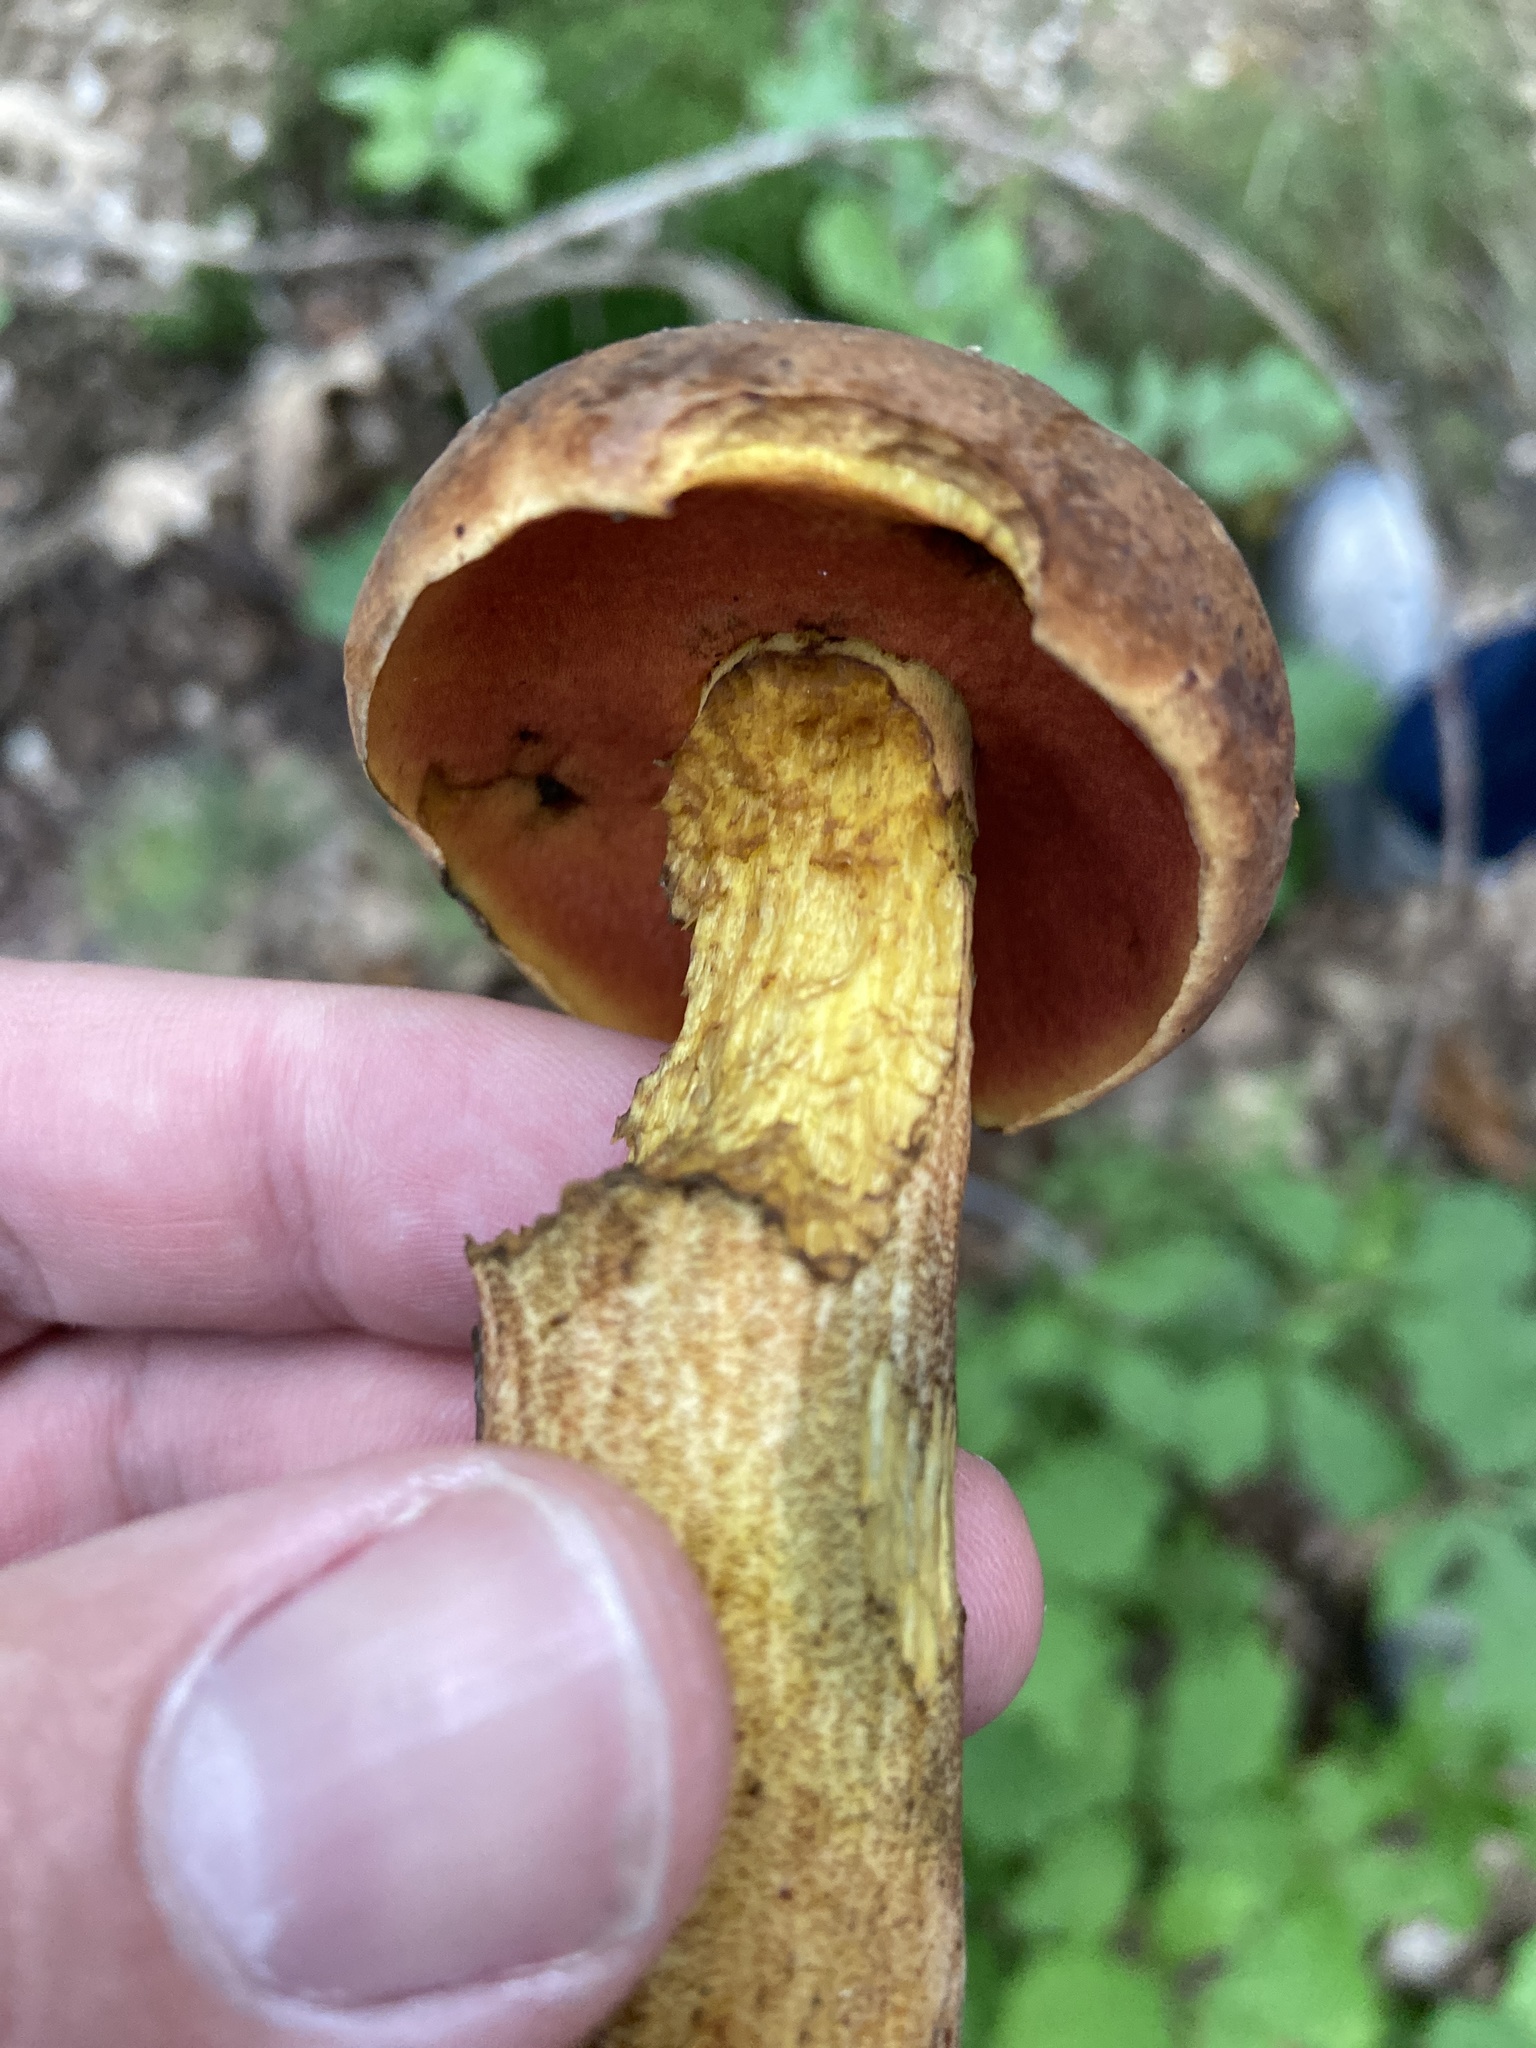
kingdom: Fungi
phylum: Basidiomycota
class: Agaricomycetes
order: Boletales
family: Boletaceae
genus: Neoboletus
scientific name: Neoboletus luridiformis
